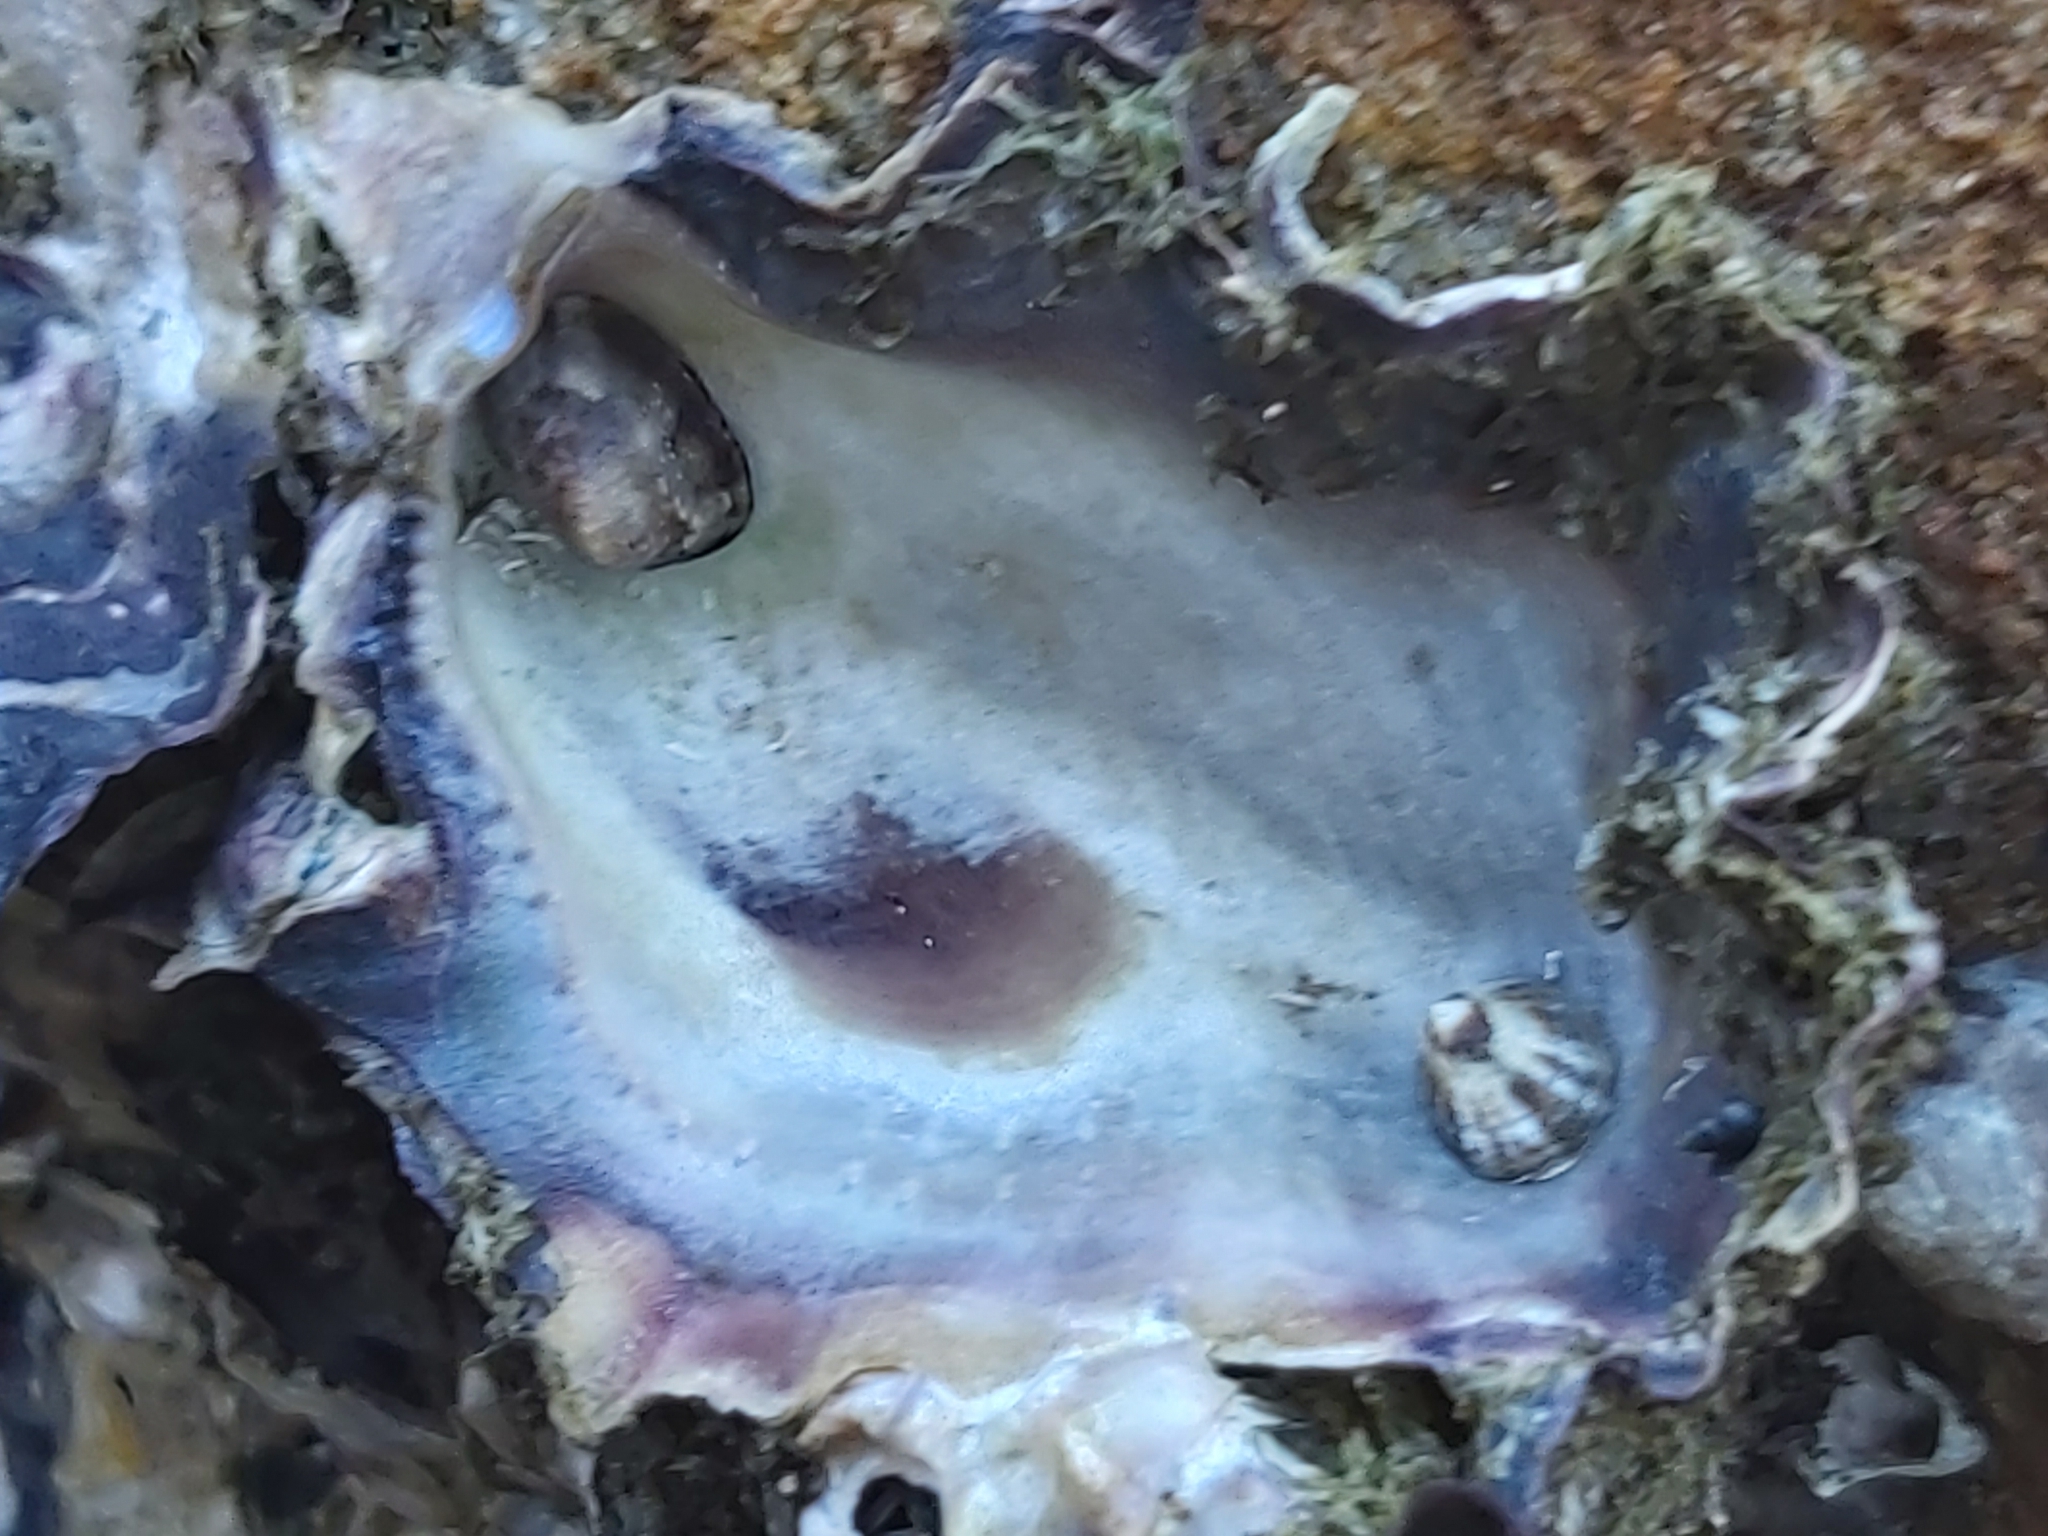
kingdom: Animalia
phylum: Mollusca
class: Bivalvia
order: Ostreida
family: Ostreidae
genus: Saccostrea
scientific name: Saccostrea glomerata
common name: Sydney cupped oyster
